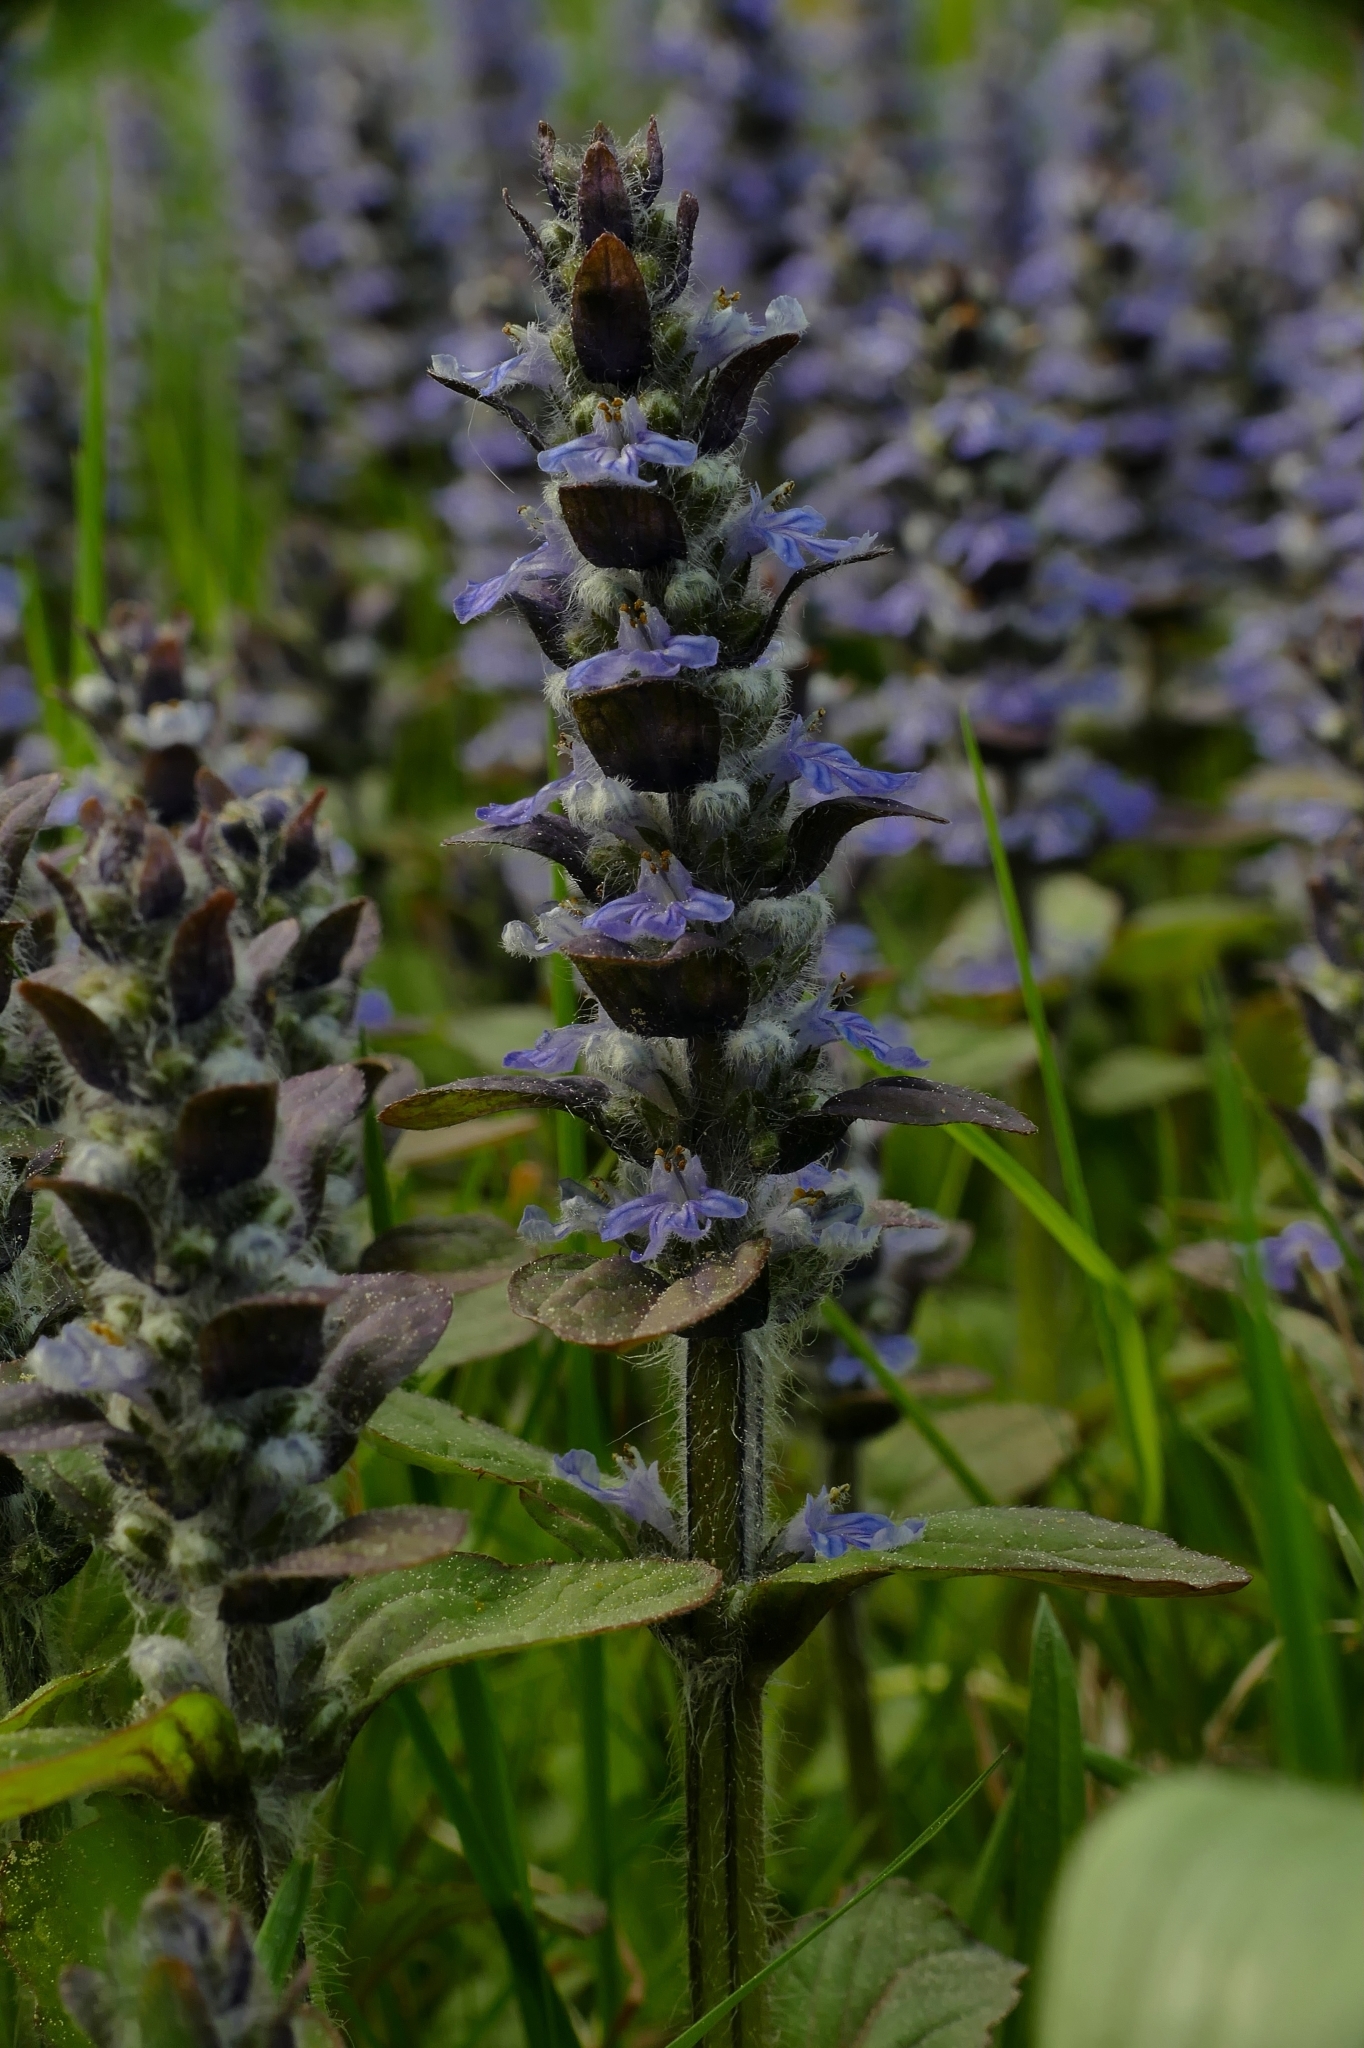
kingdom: Plantae
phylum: Tracheophyta
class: Magnoliopsida
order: Lamiales
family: Lamiaceae
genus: Ajuga
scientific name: Ajuga reptans
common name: Bugle
